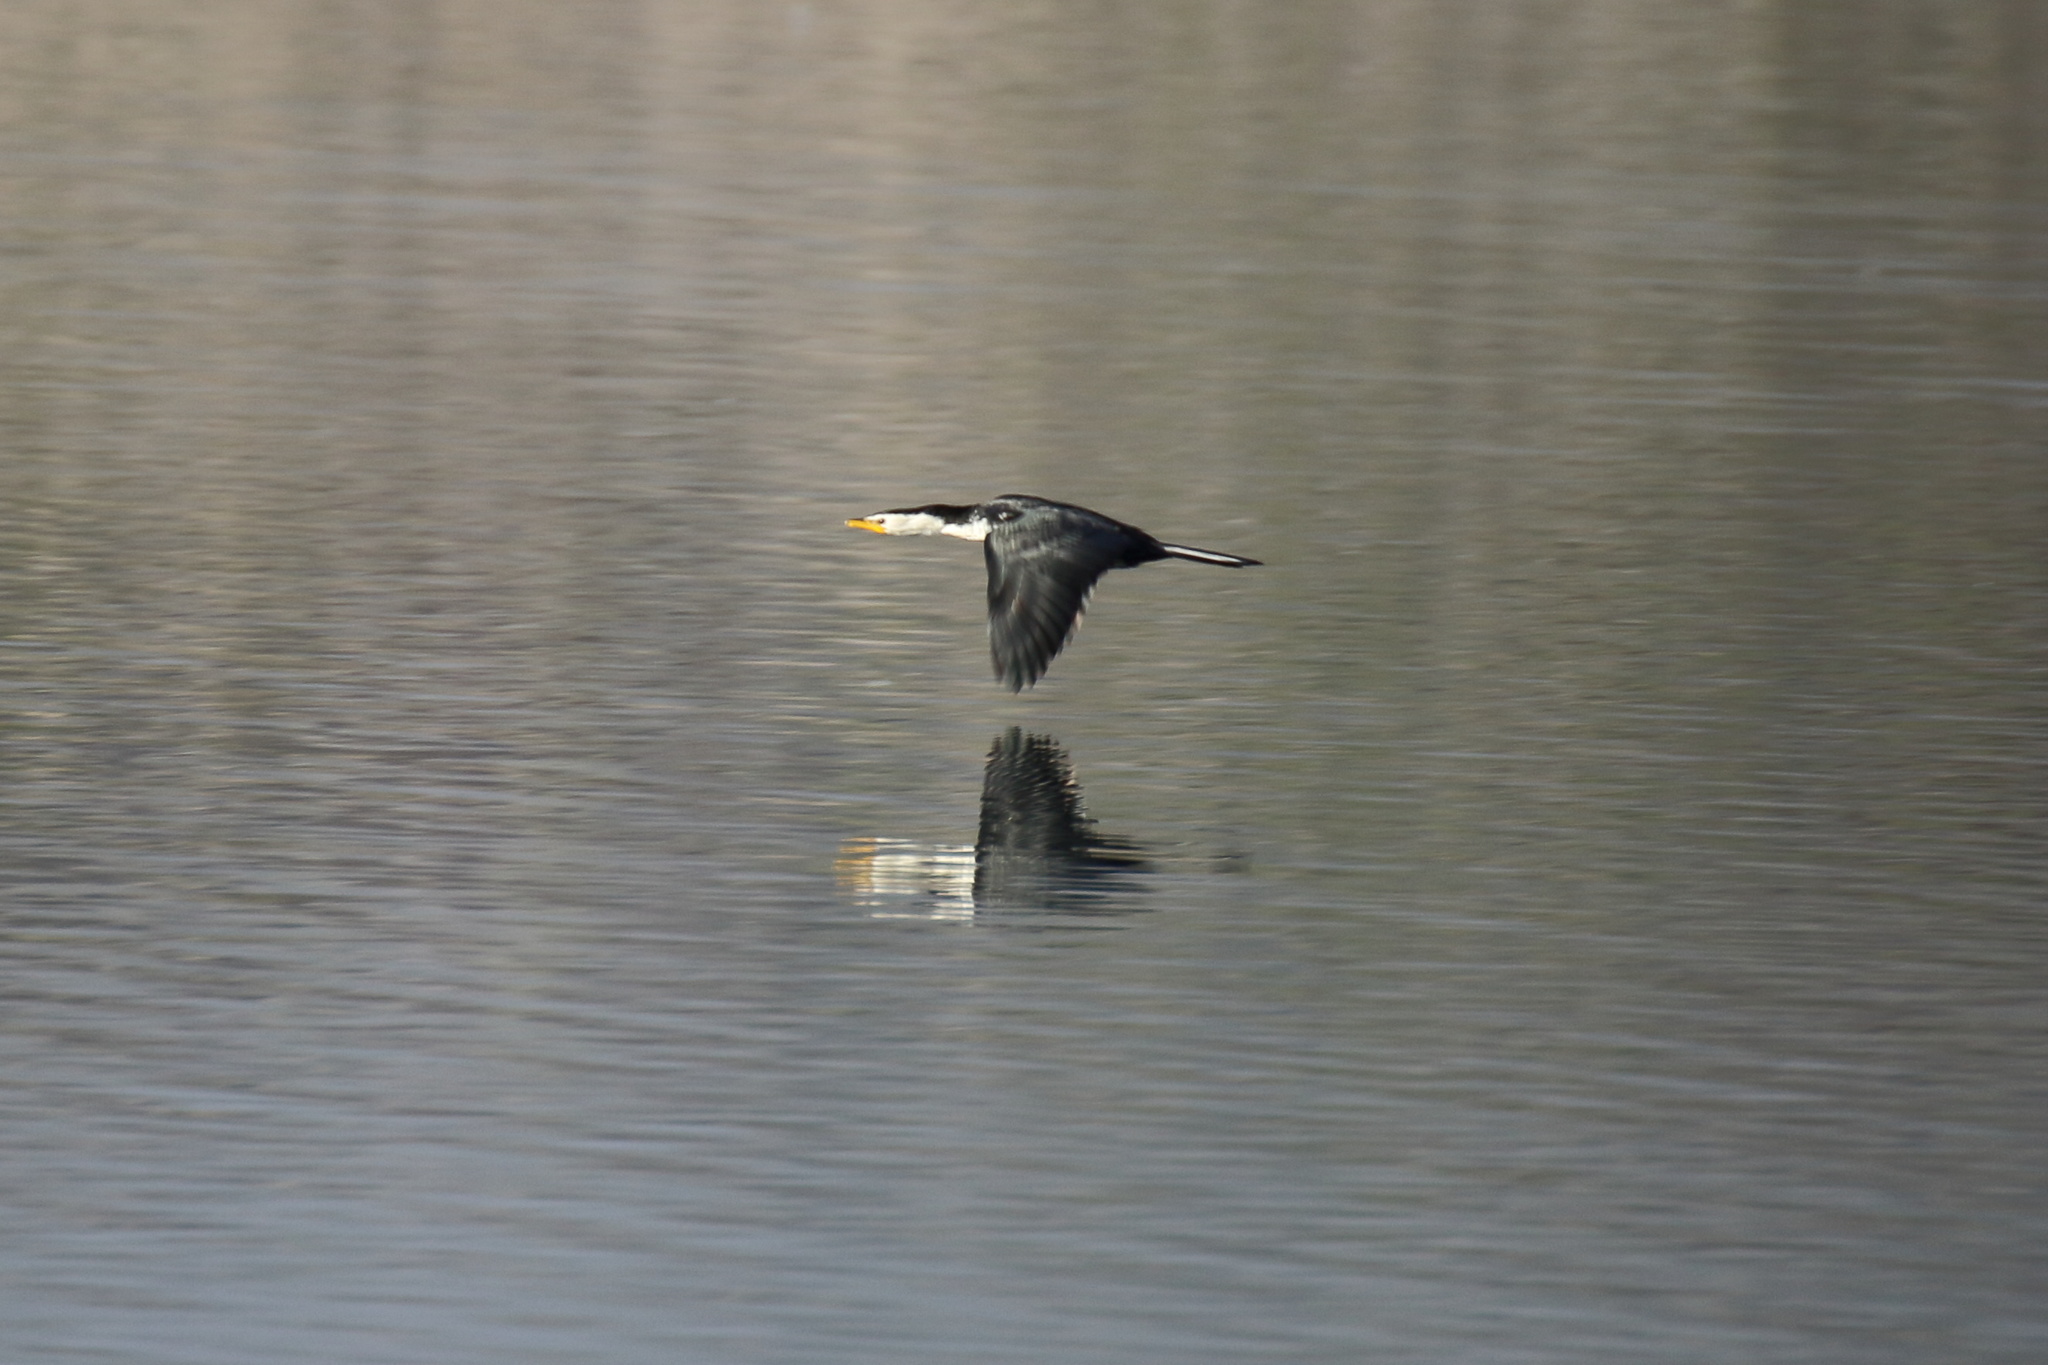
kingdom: Animalia
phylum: Chordata
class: Aves
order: Suliformes
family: Phalacrocoracidae
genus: Microcarbo
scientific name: Microcarbo melanoleucos
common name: Little pied cormorant
